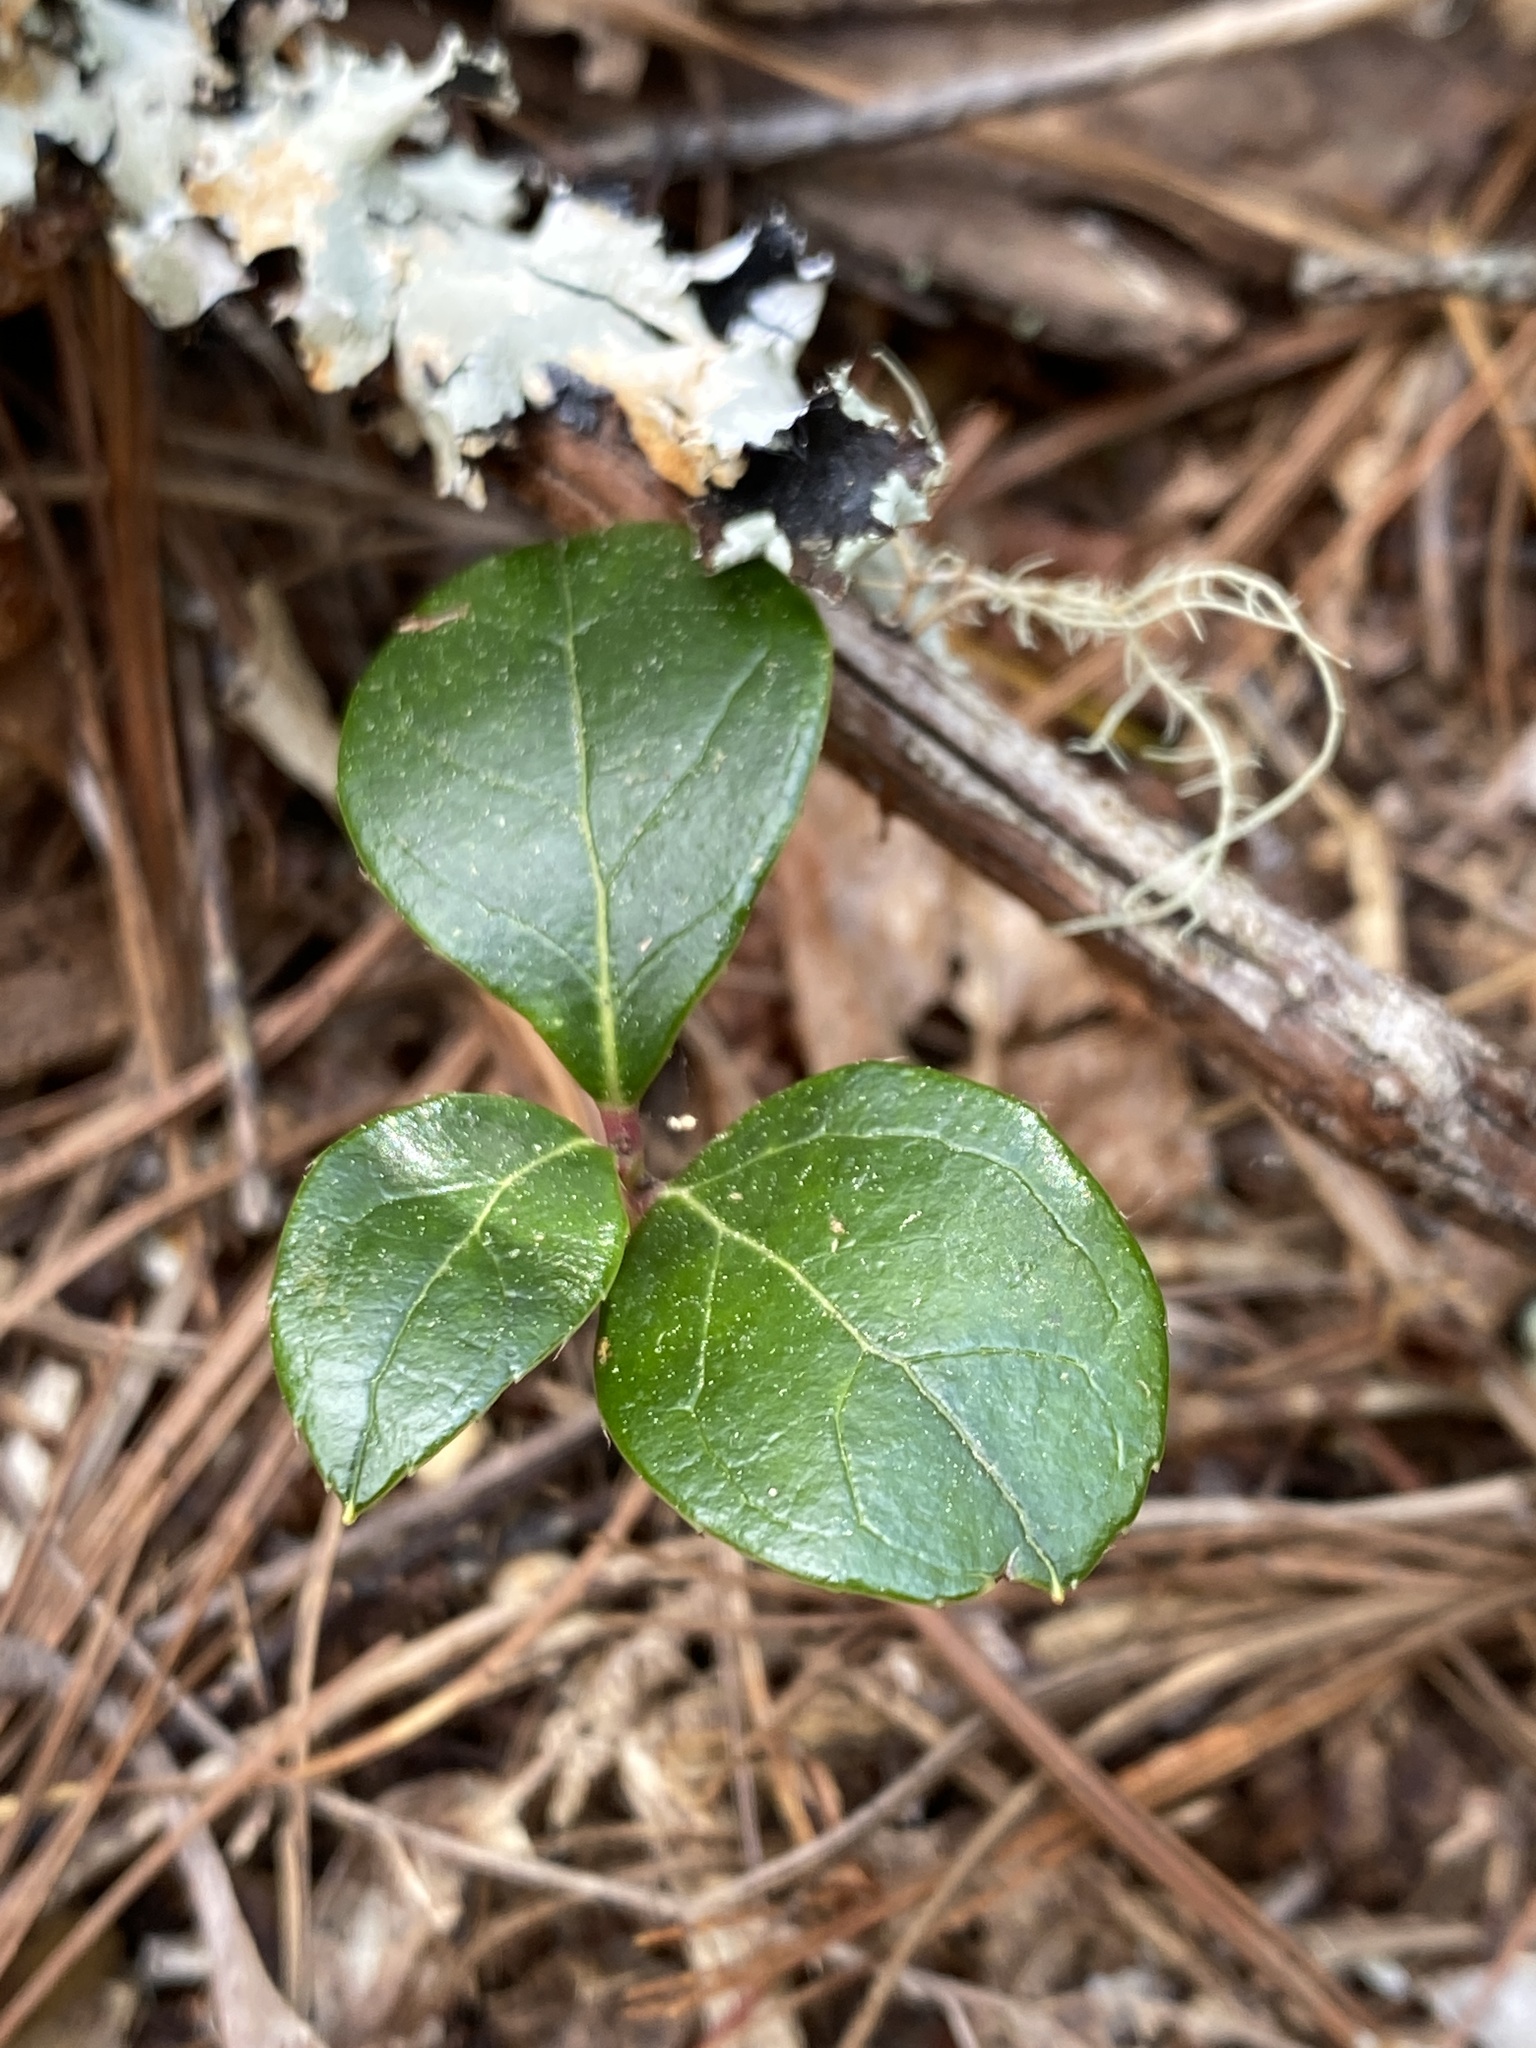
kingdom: Plantae
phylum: Tracheophyta
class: Magnoliopsida
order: Ericales
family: Ericaceae
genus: Gaultheria
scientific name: Gaultheria procumbens
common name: Checkerberry
